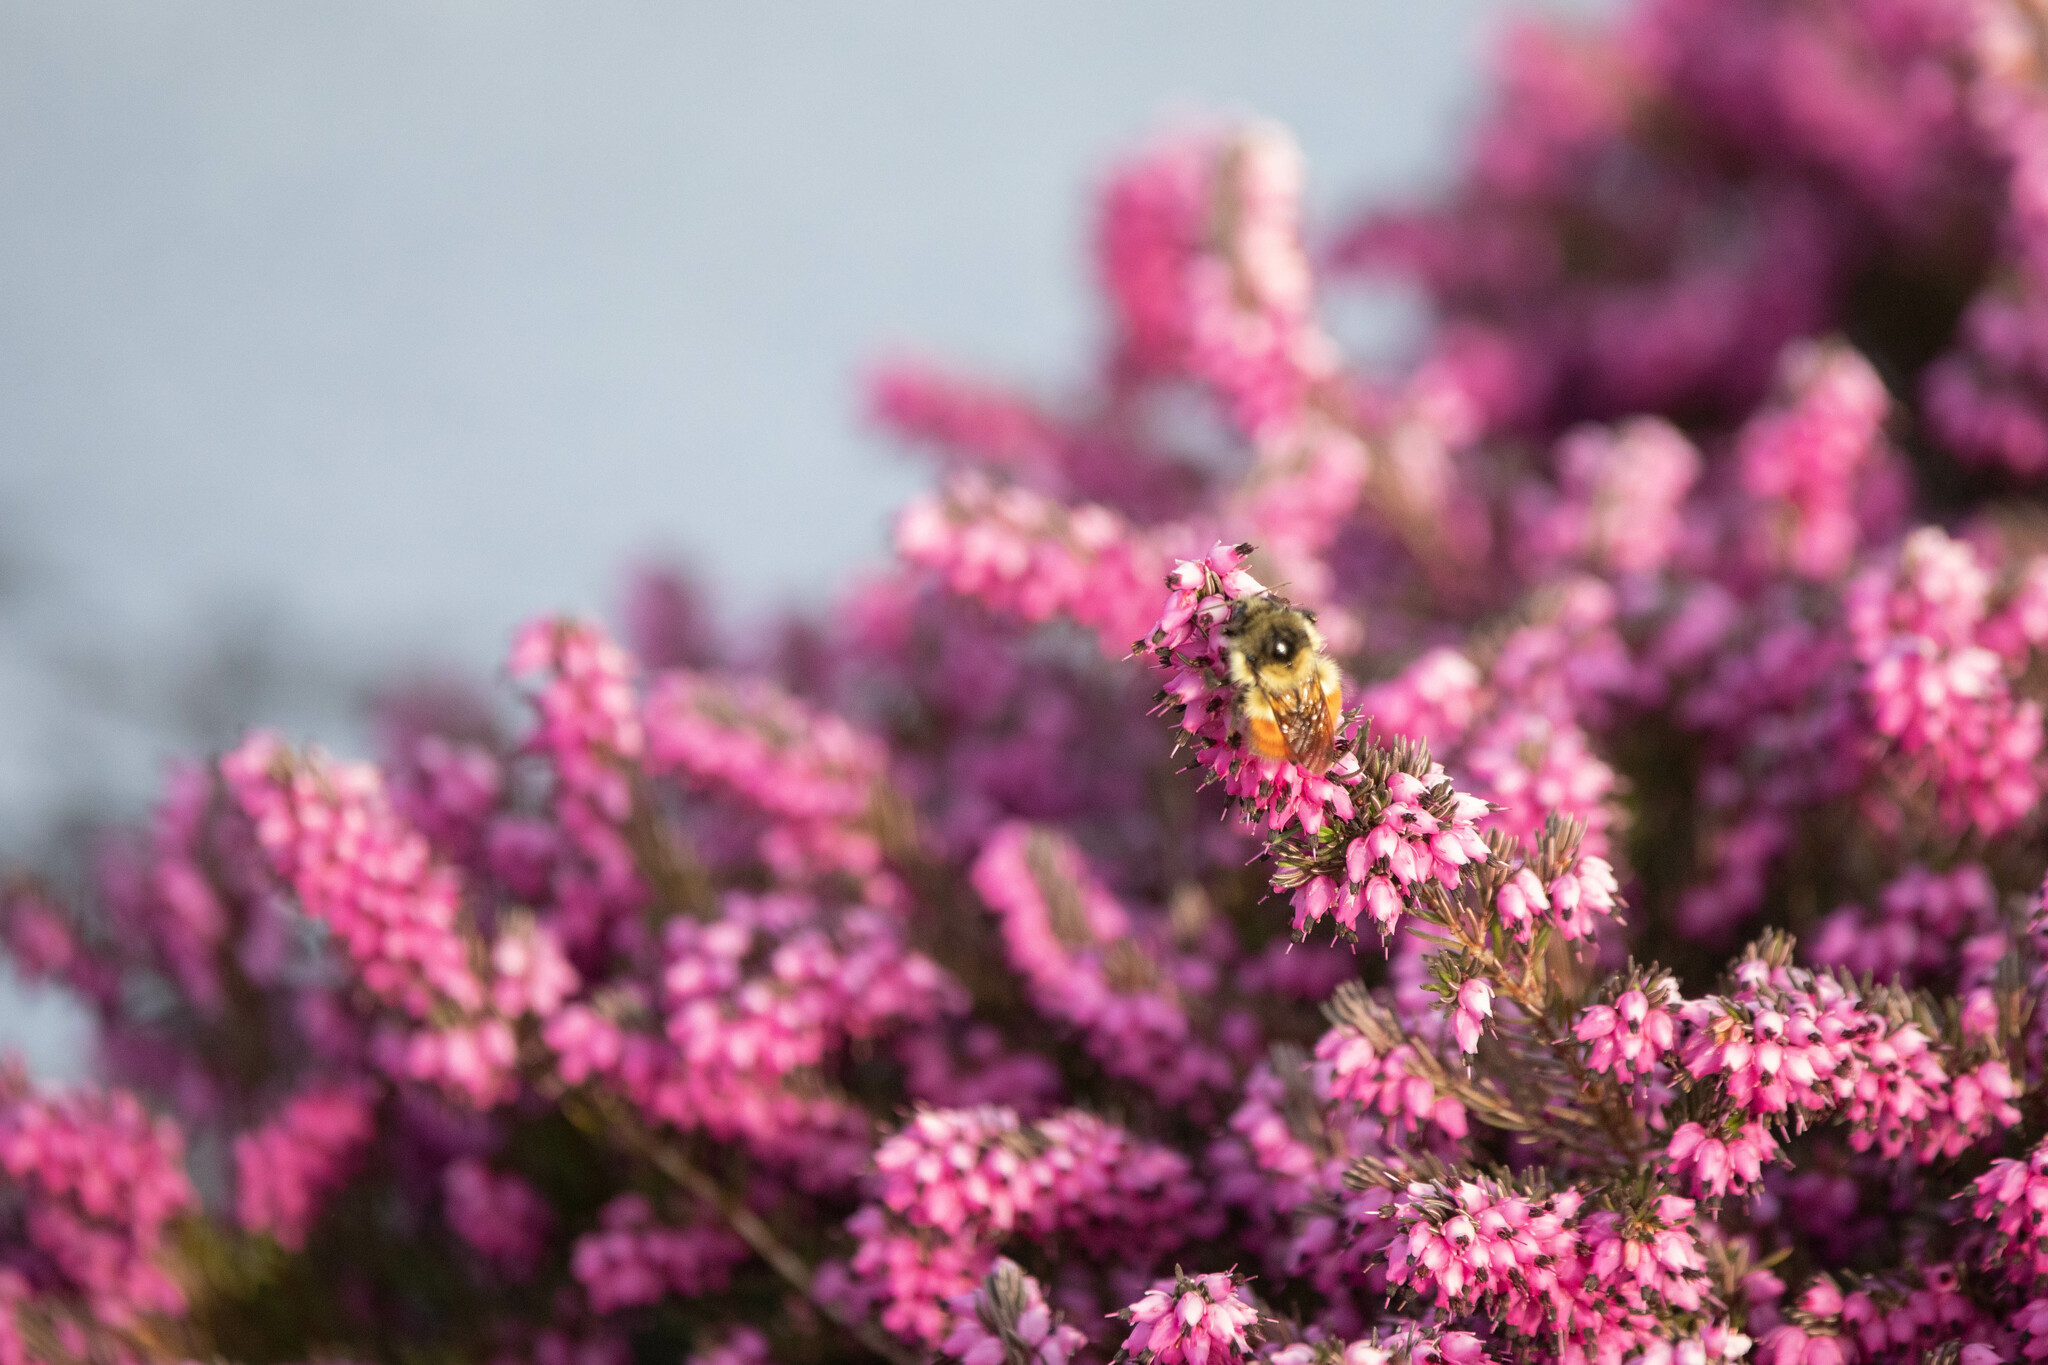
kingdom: Animalia
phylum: Arthropoda
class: Insecta
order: Hymenoptera
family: Apidae
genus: Bombus
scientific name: Bombus melanopygus
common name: Black tail bumble bee
